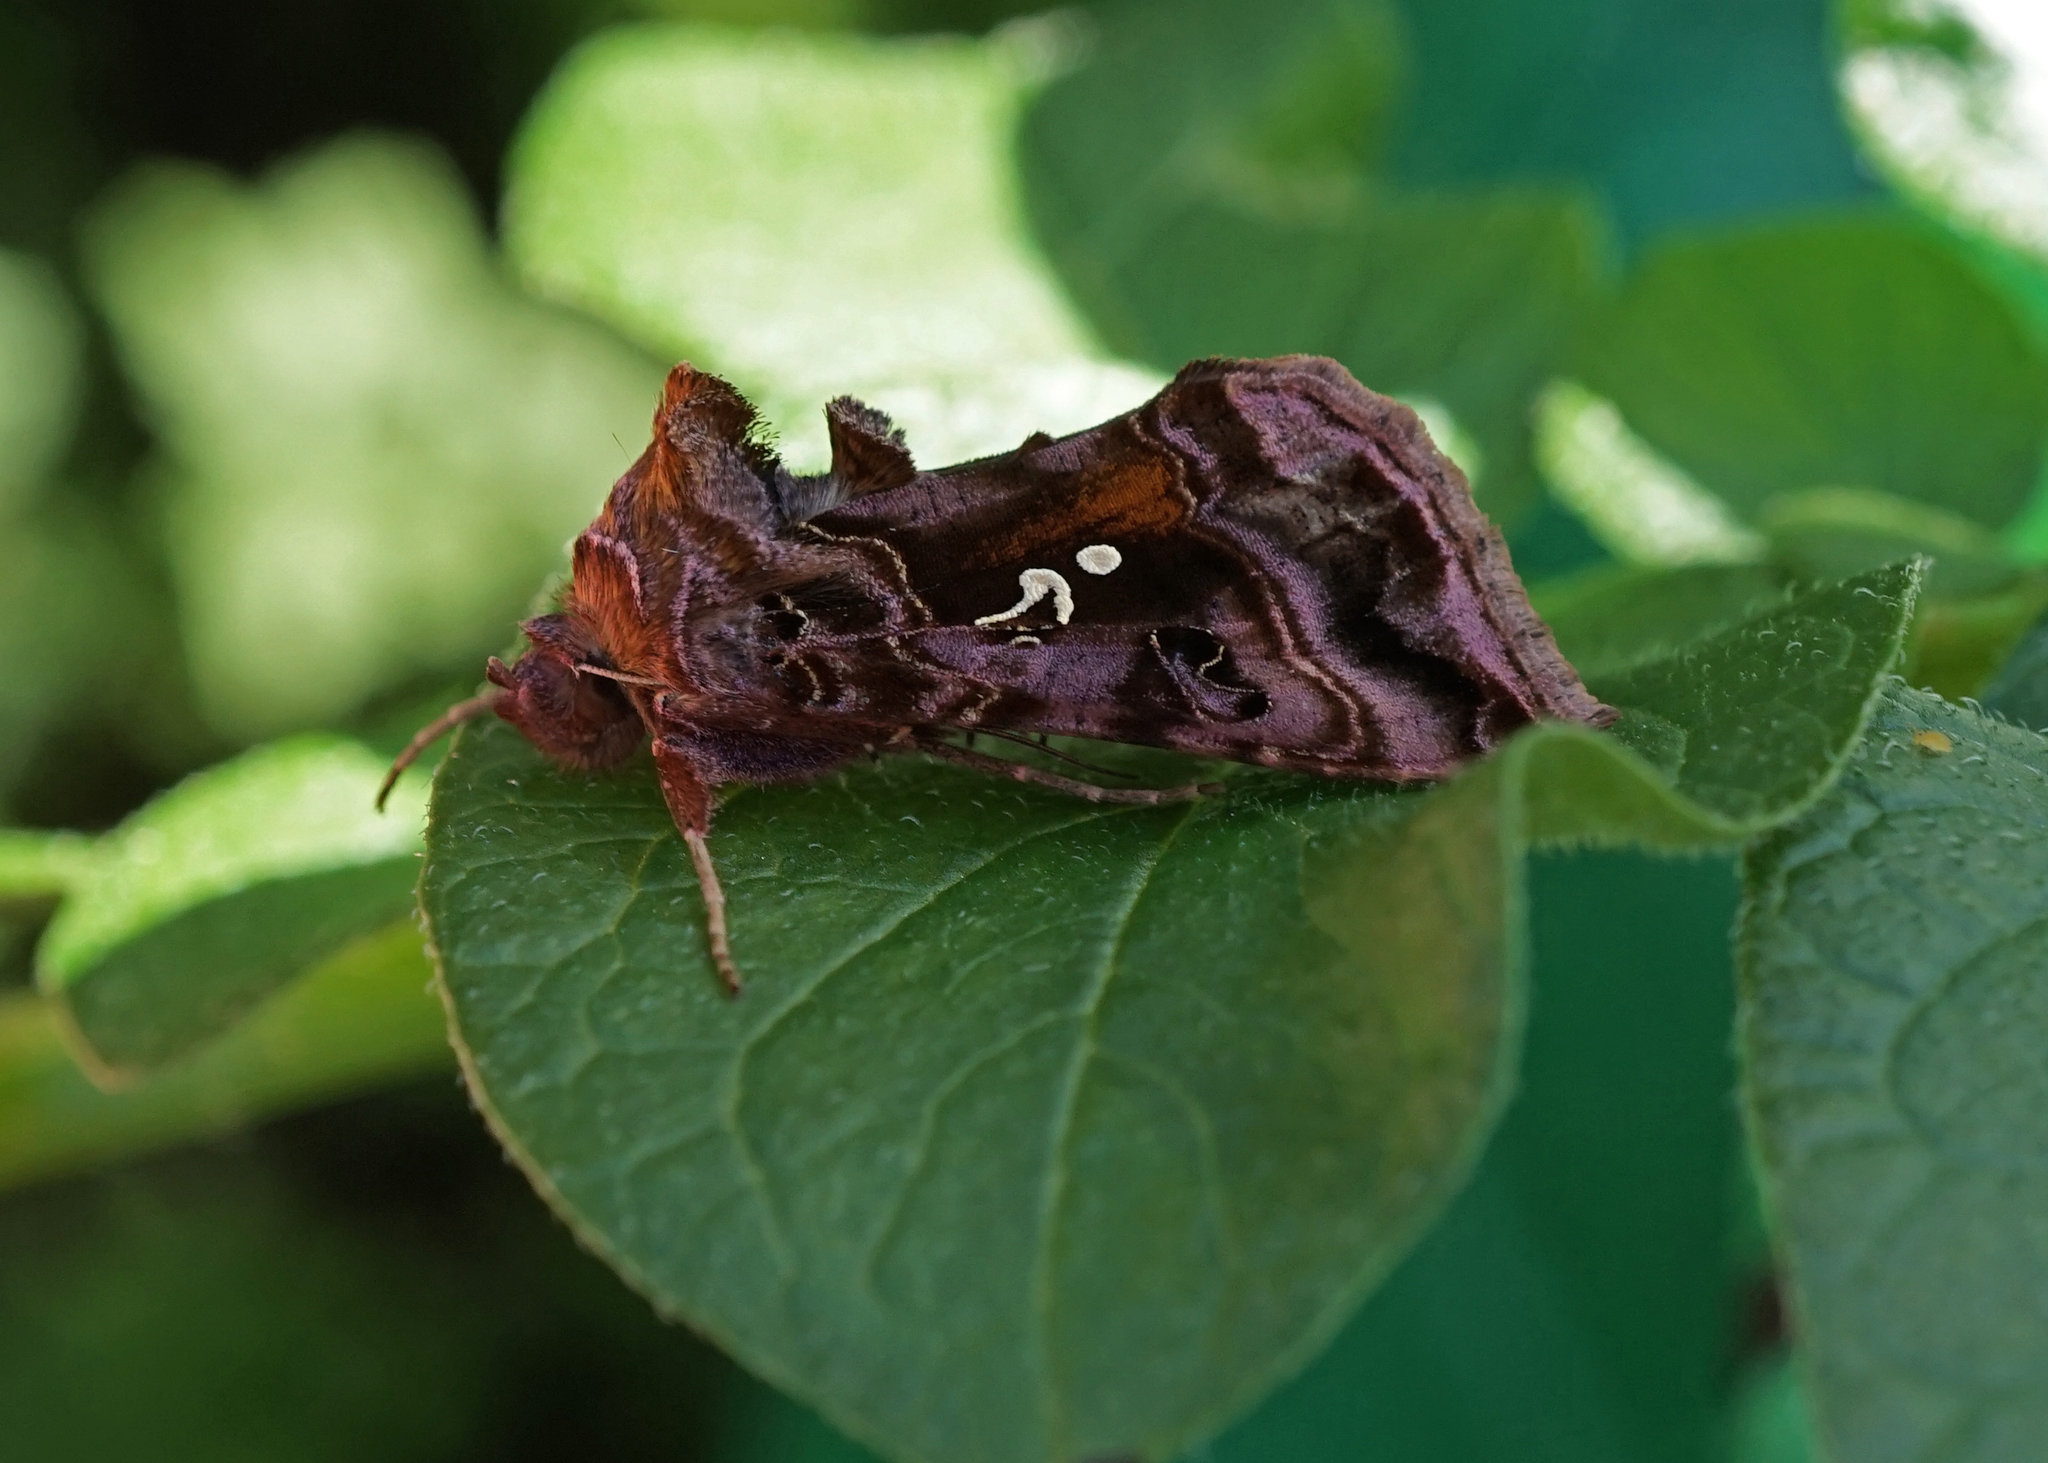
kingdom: Animalia
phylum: Arthropoda
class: Insecta
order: Lepidoptera
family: Noctuidae
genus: Autographa
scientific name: Autographa pulchrina
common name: Beautiful golden y
